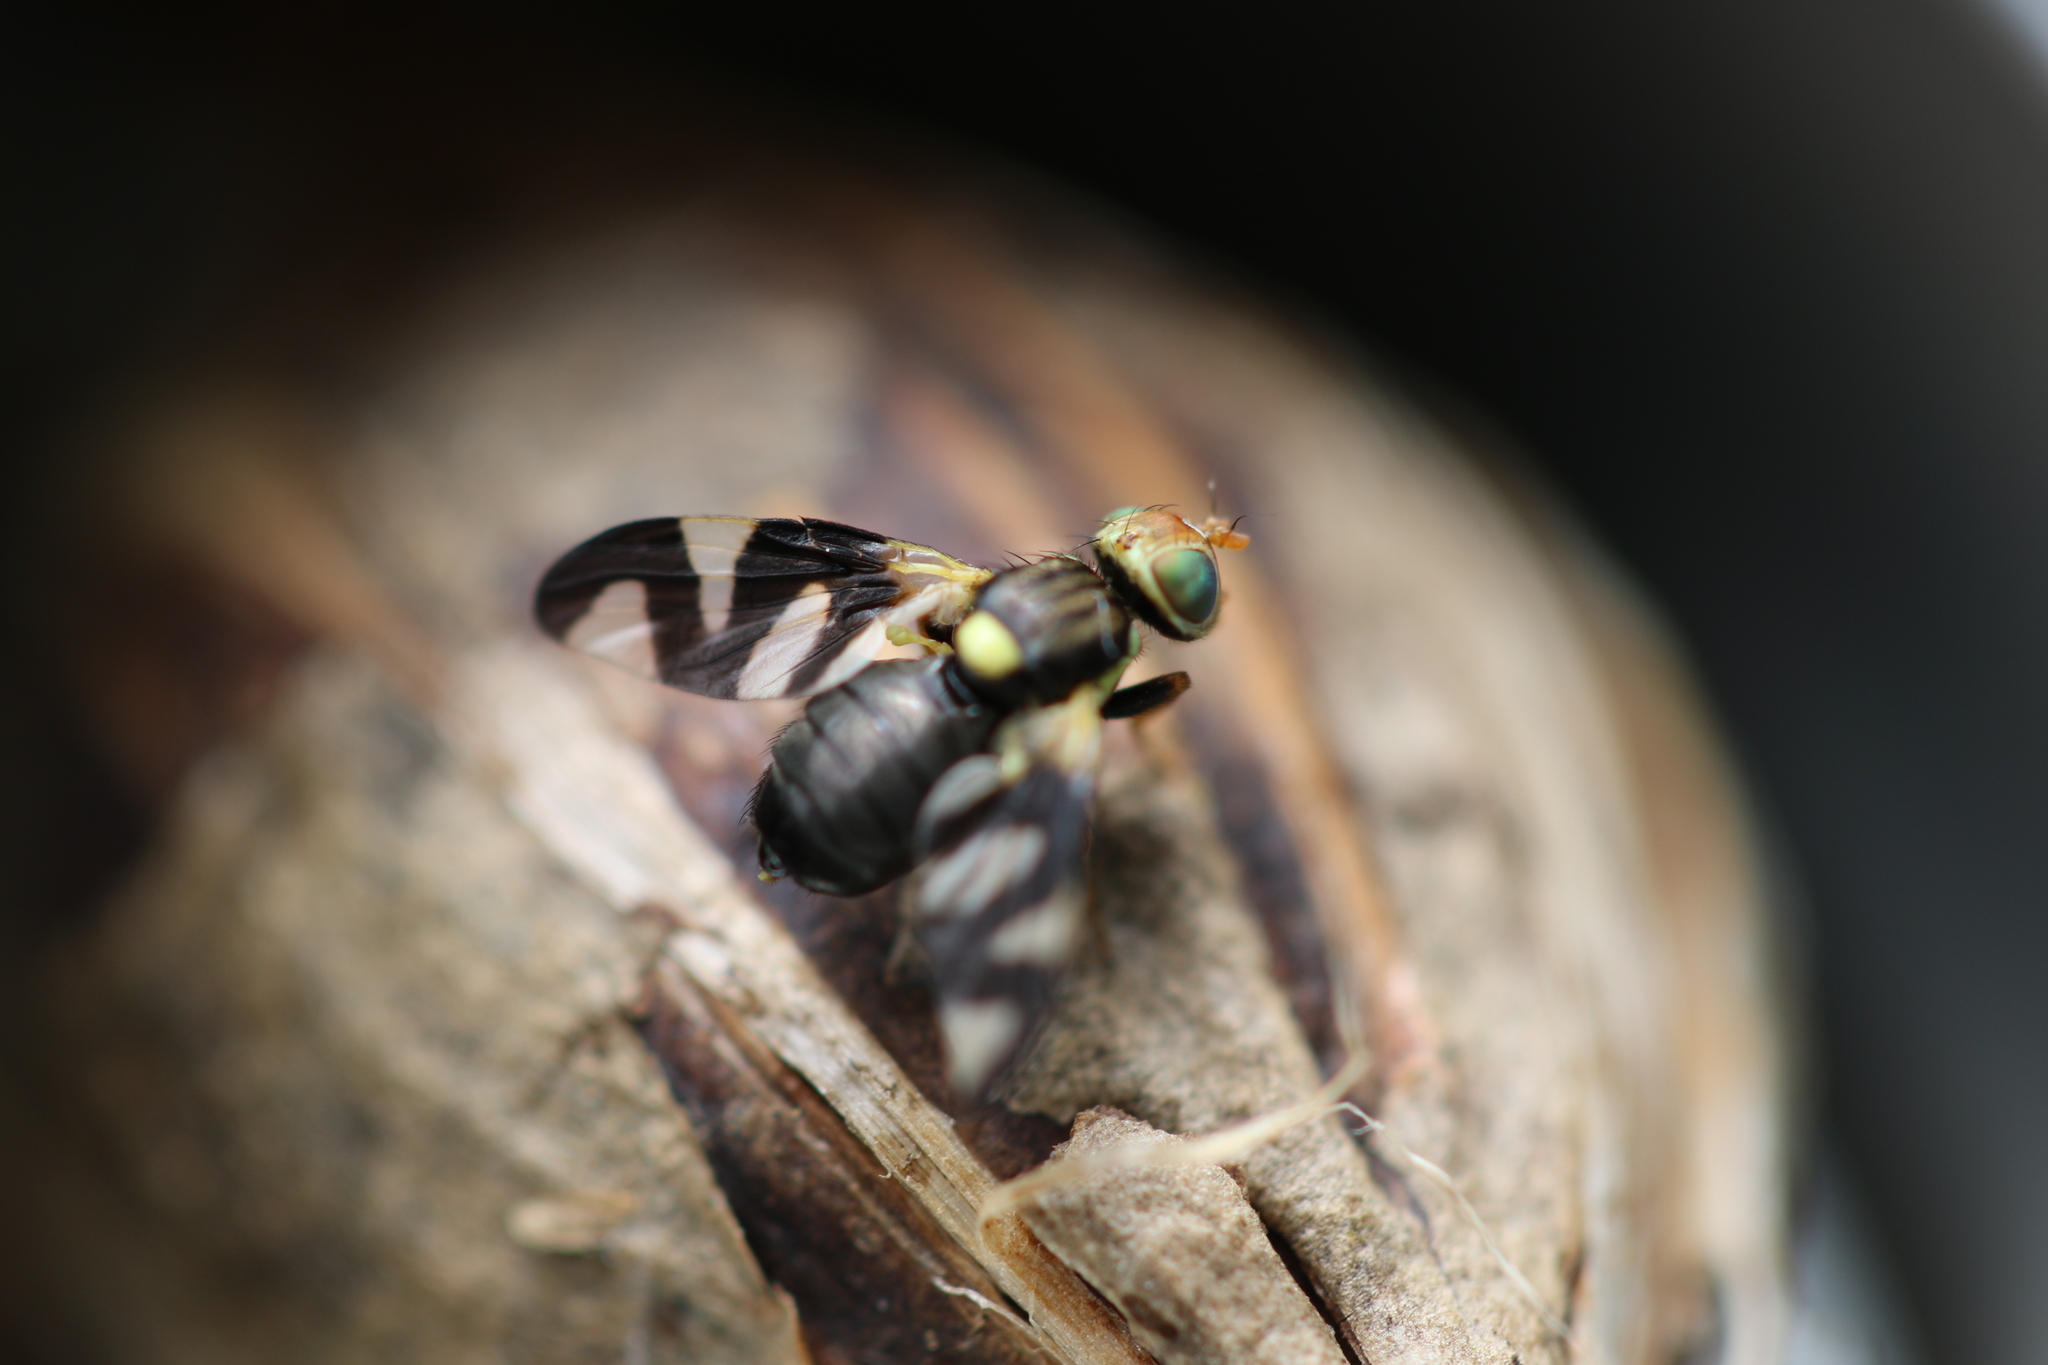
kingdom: Animalia
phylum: Arthropoda
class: Insecta
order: Diptera
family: Tephritidae
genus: Urophora
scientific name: Urophora cardui
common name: Fruit fly
